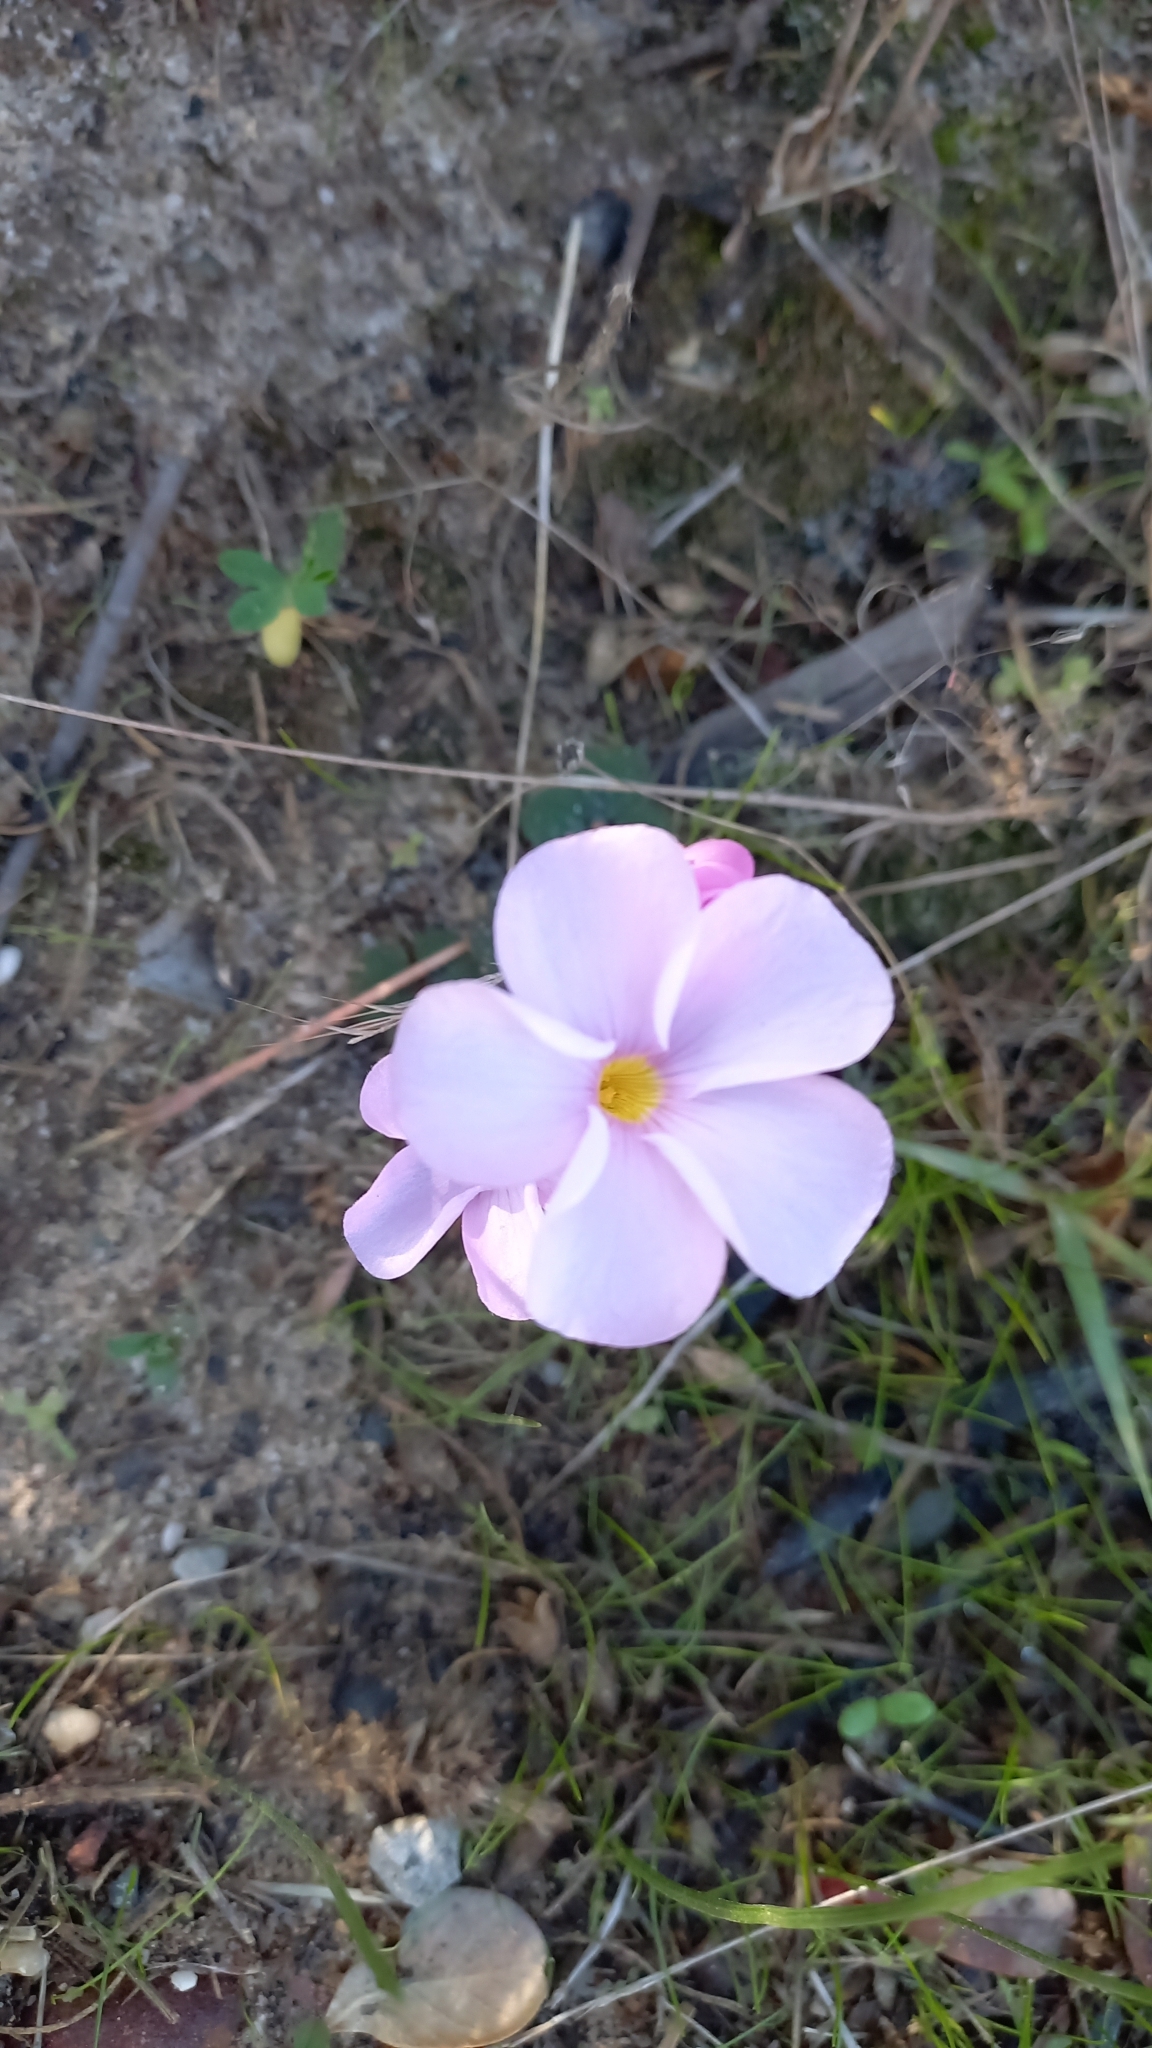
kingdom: Plantae
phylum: Tracheophyta
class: Magnoliopsida
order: Oxalidales
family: Oxalidaceae
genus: Oxalis
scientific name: Oxalis polyphylla
